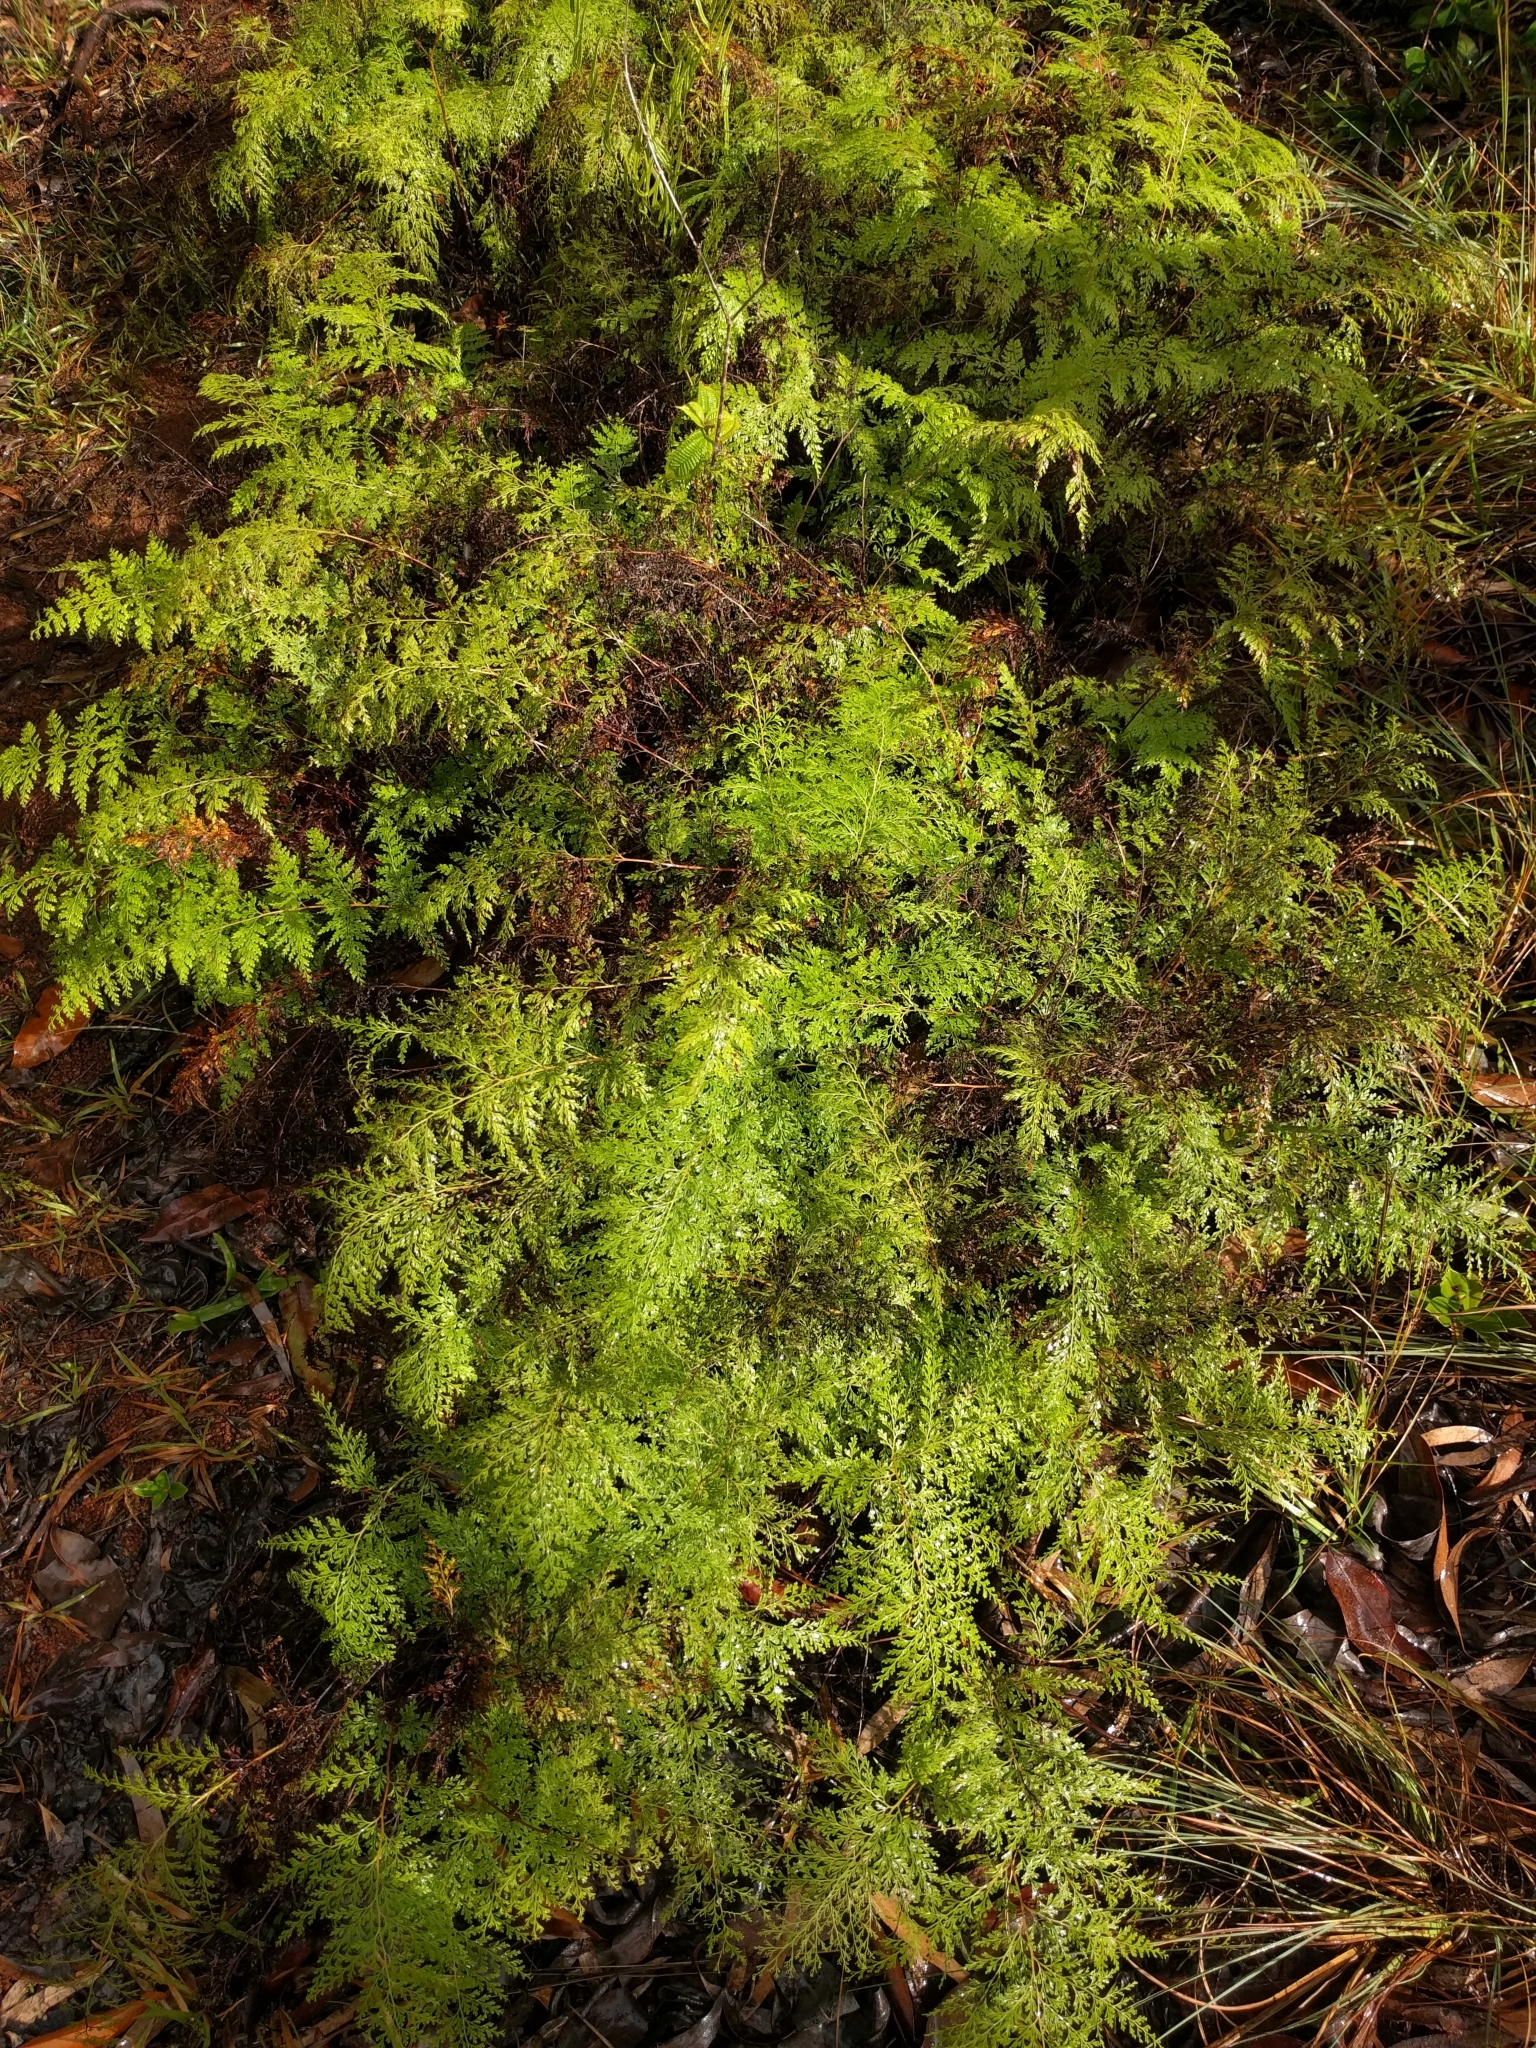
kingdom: Plantae
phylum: Tracheophyta
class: Polypodiopsida
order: Polypodiales
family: Lindsaeaceae
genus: Odontosoria
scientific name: Odontosoria chinensis
